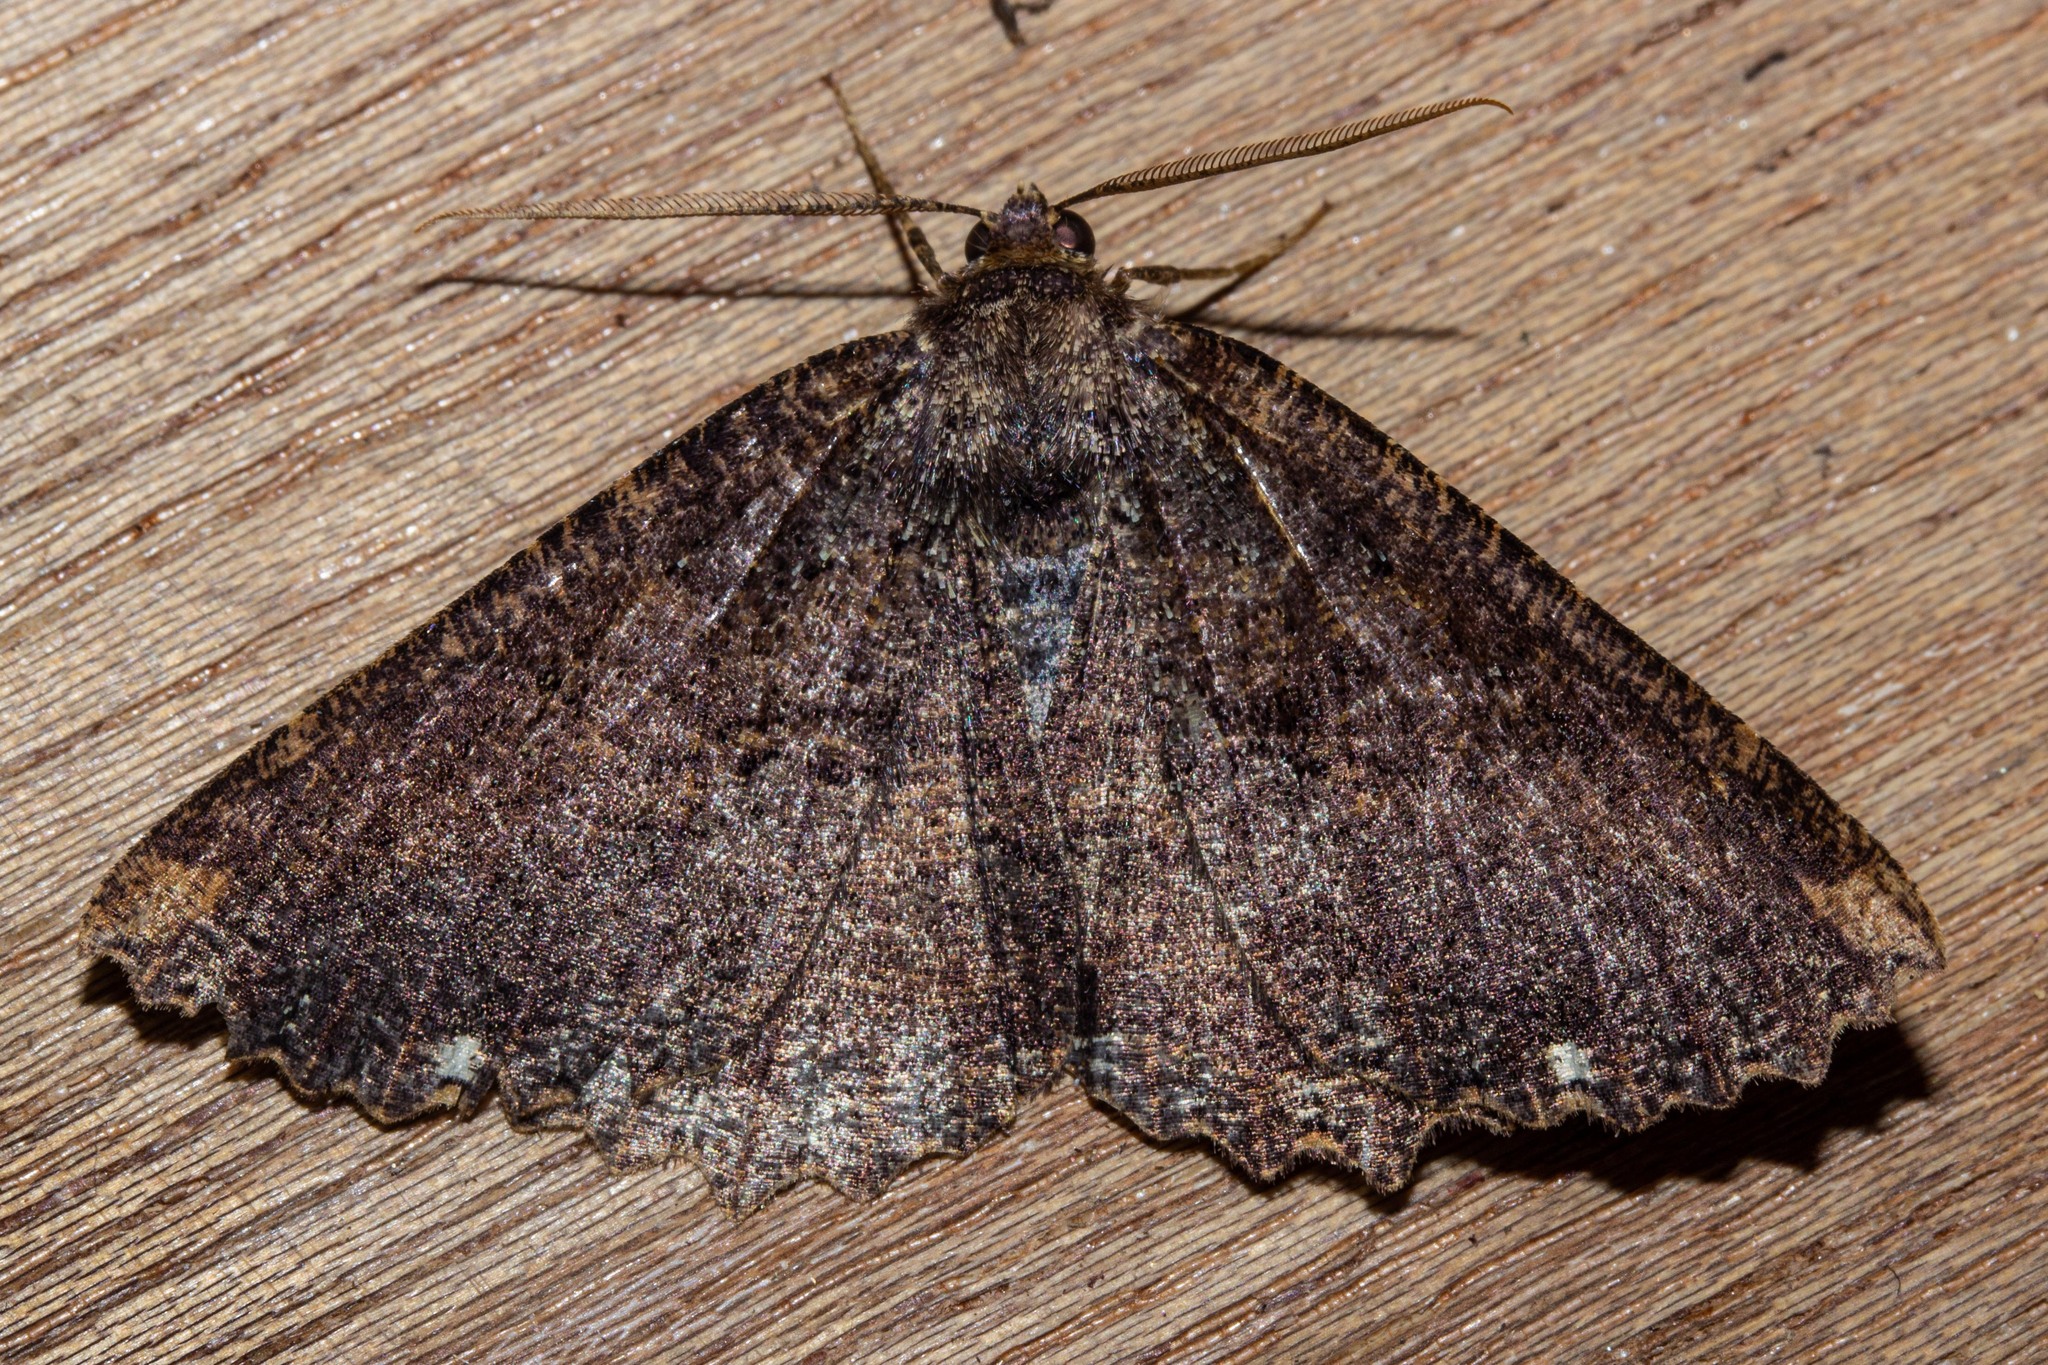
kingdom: Animalia
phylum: Arthropoda
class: Insecta
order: Lepidoptera
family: Geometridae
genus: Gellonia
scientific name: Gellonia dejectaria
